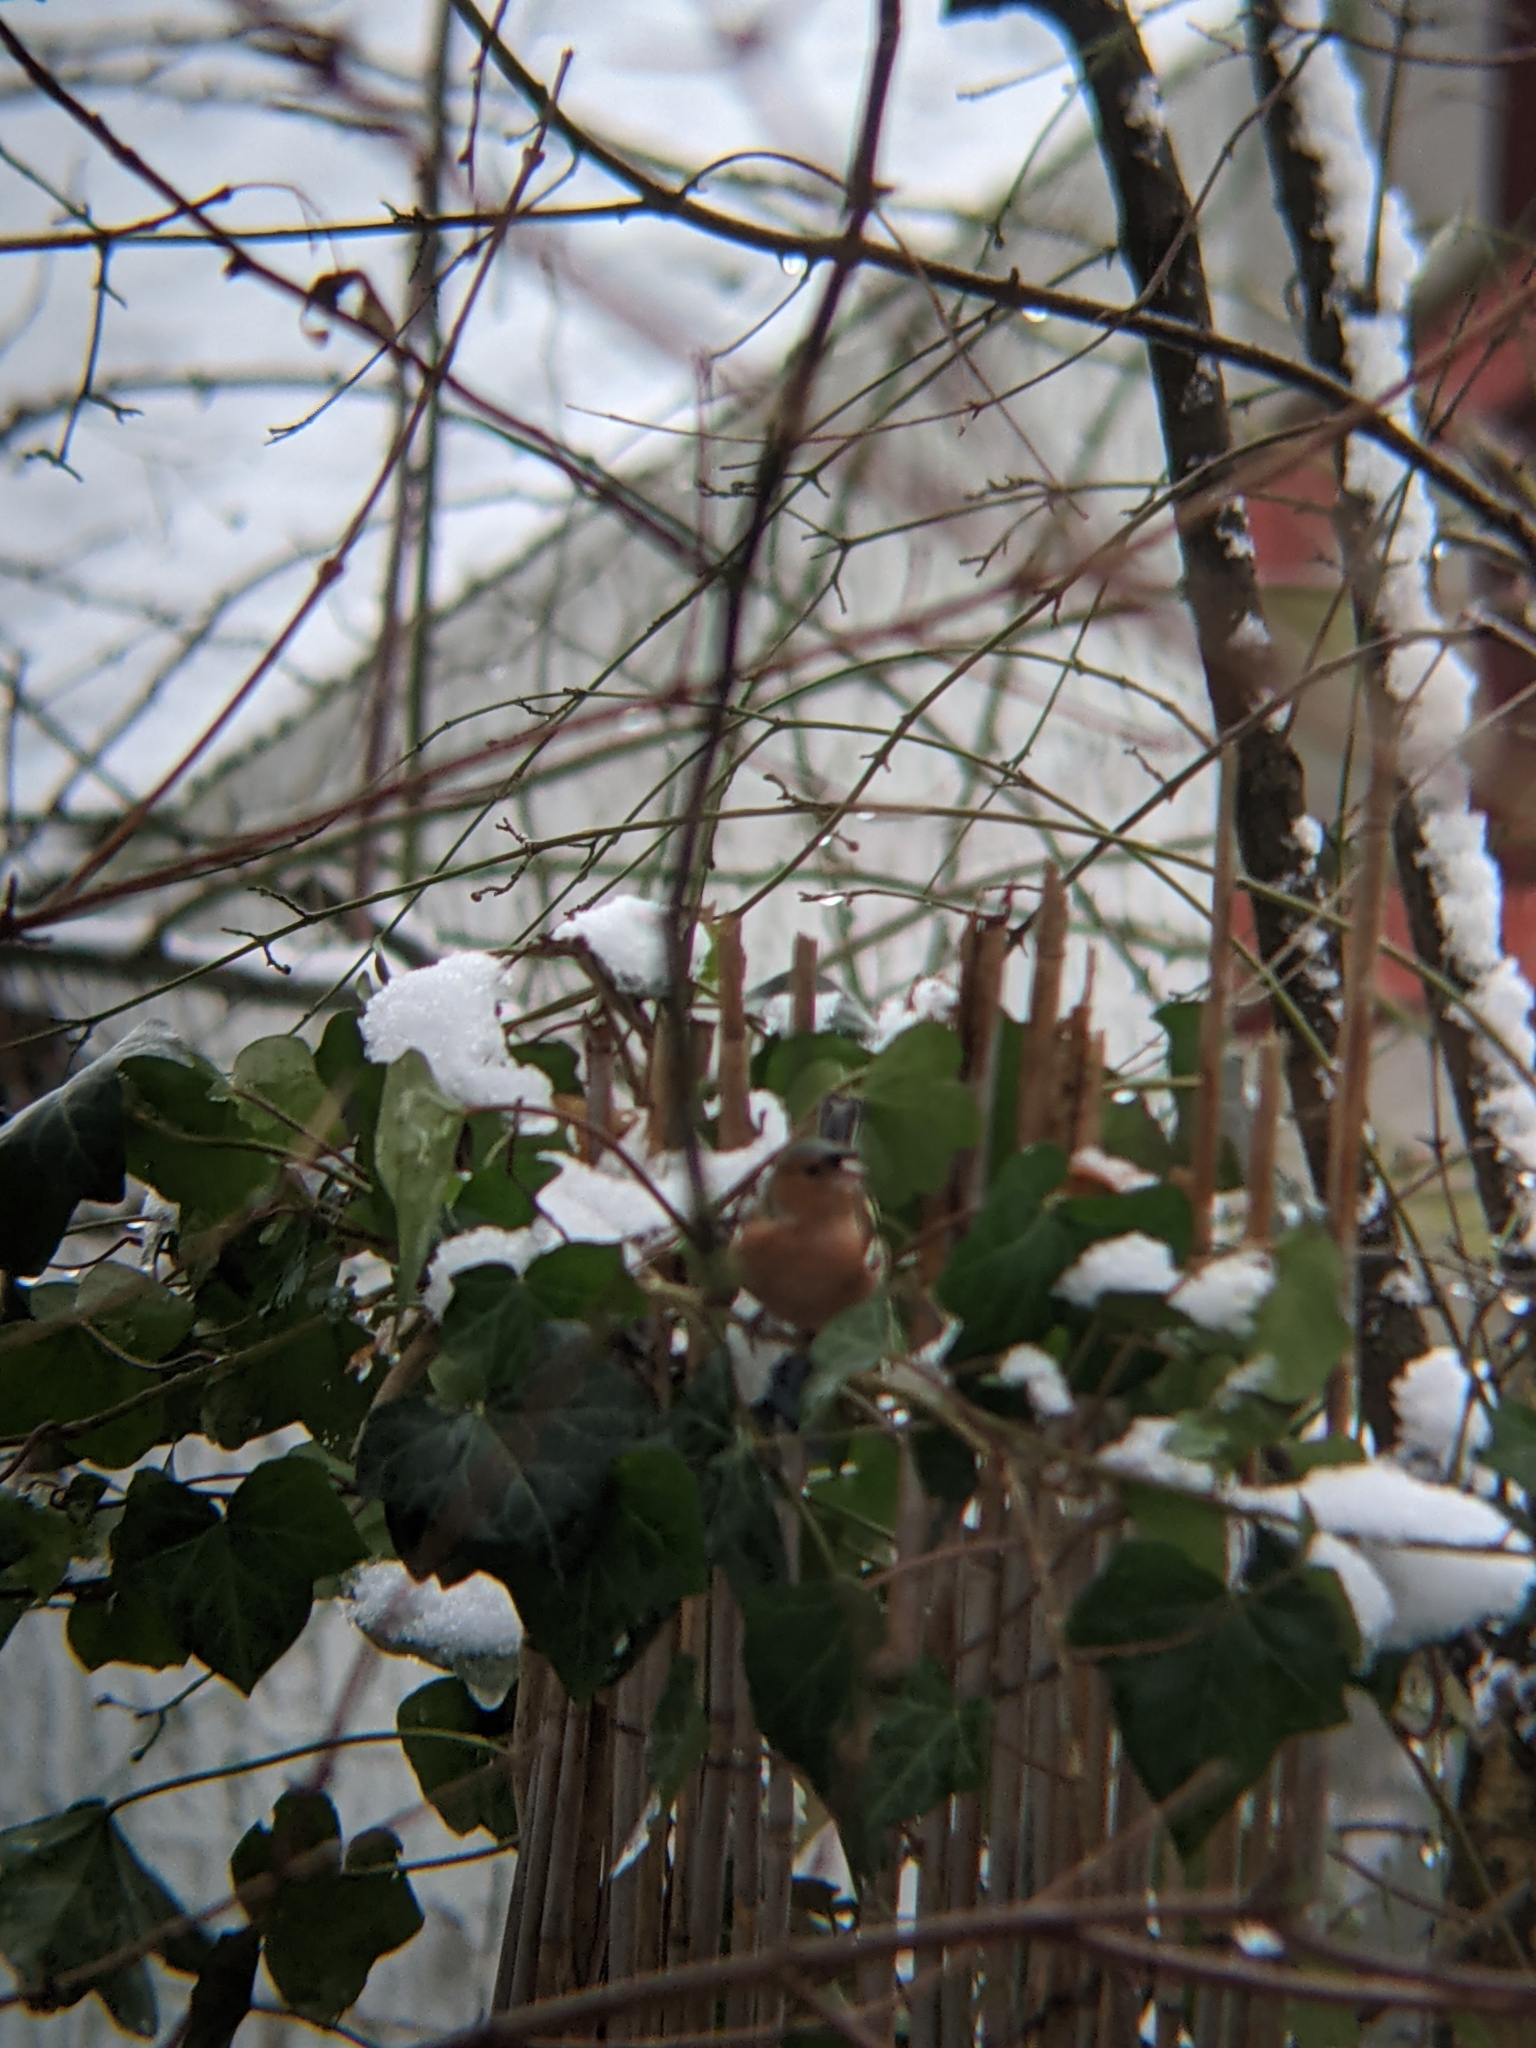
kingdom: Animalia
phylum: Chordata
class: Aves
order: Passeriformes
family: Fringillidae
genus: Fringilla
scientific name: Fringilla coelebs
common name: Common chaffinch
